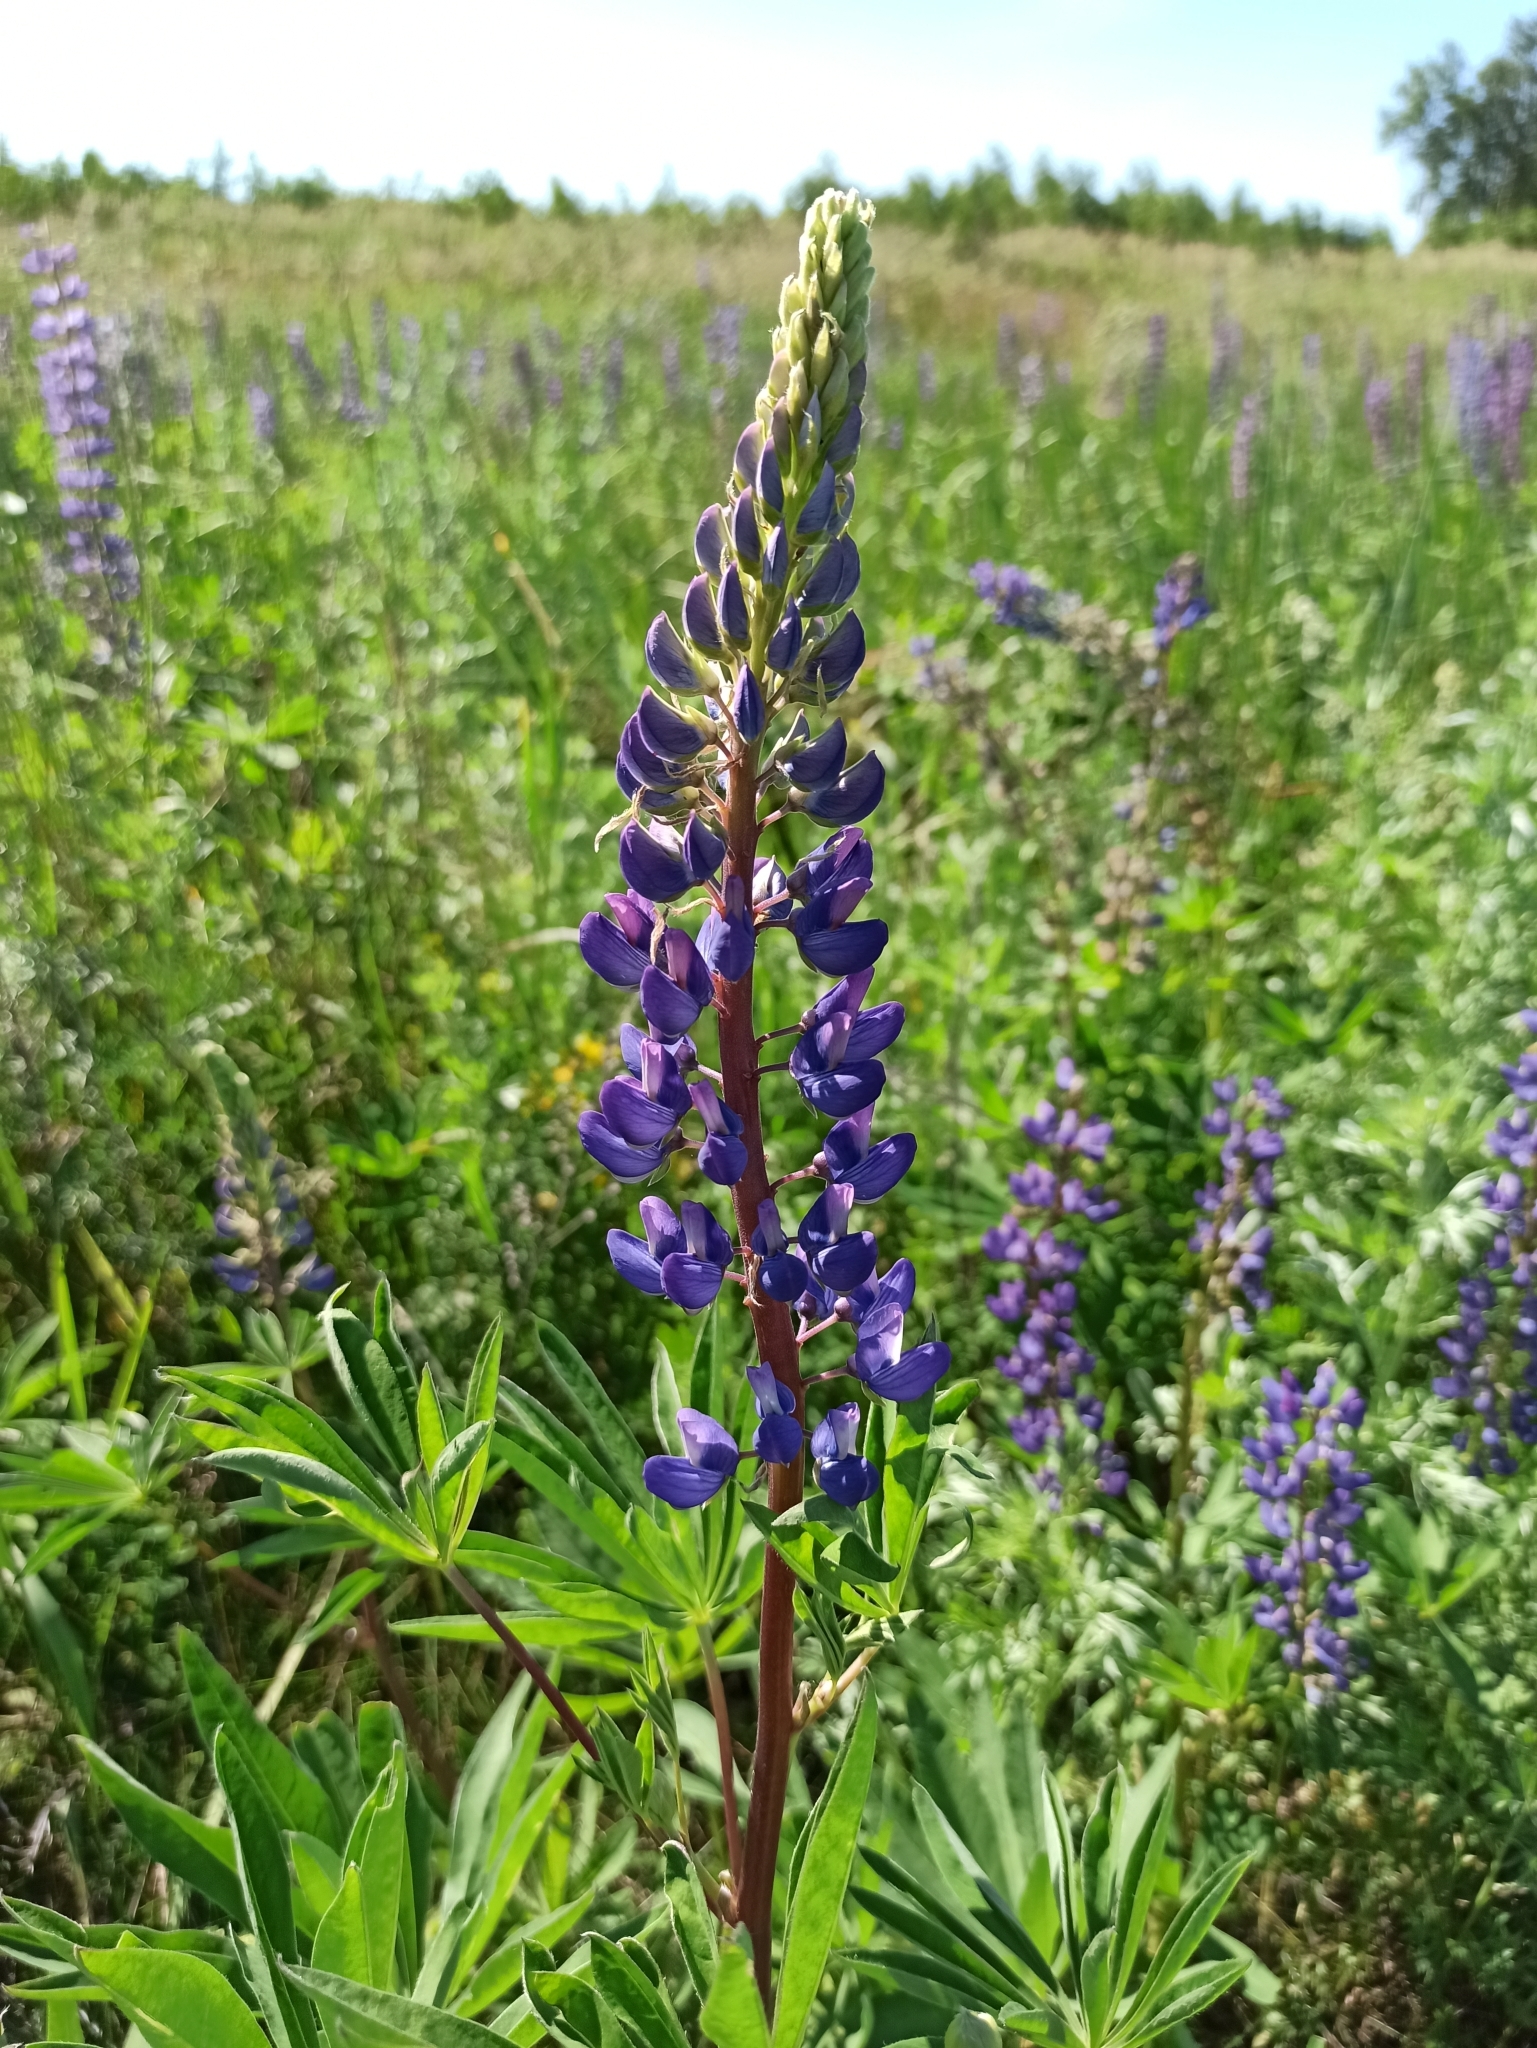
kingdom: Plantae
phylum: Tracheophyta
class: Magnoliopsida
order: Fabales
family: Fabaceae
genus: Lupinus
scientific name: Lupinus polyphyllus
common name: Garden lupin
